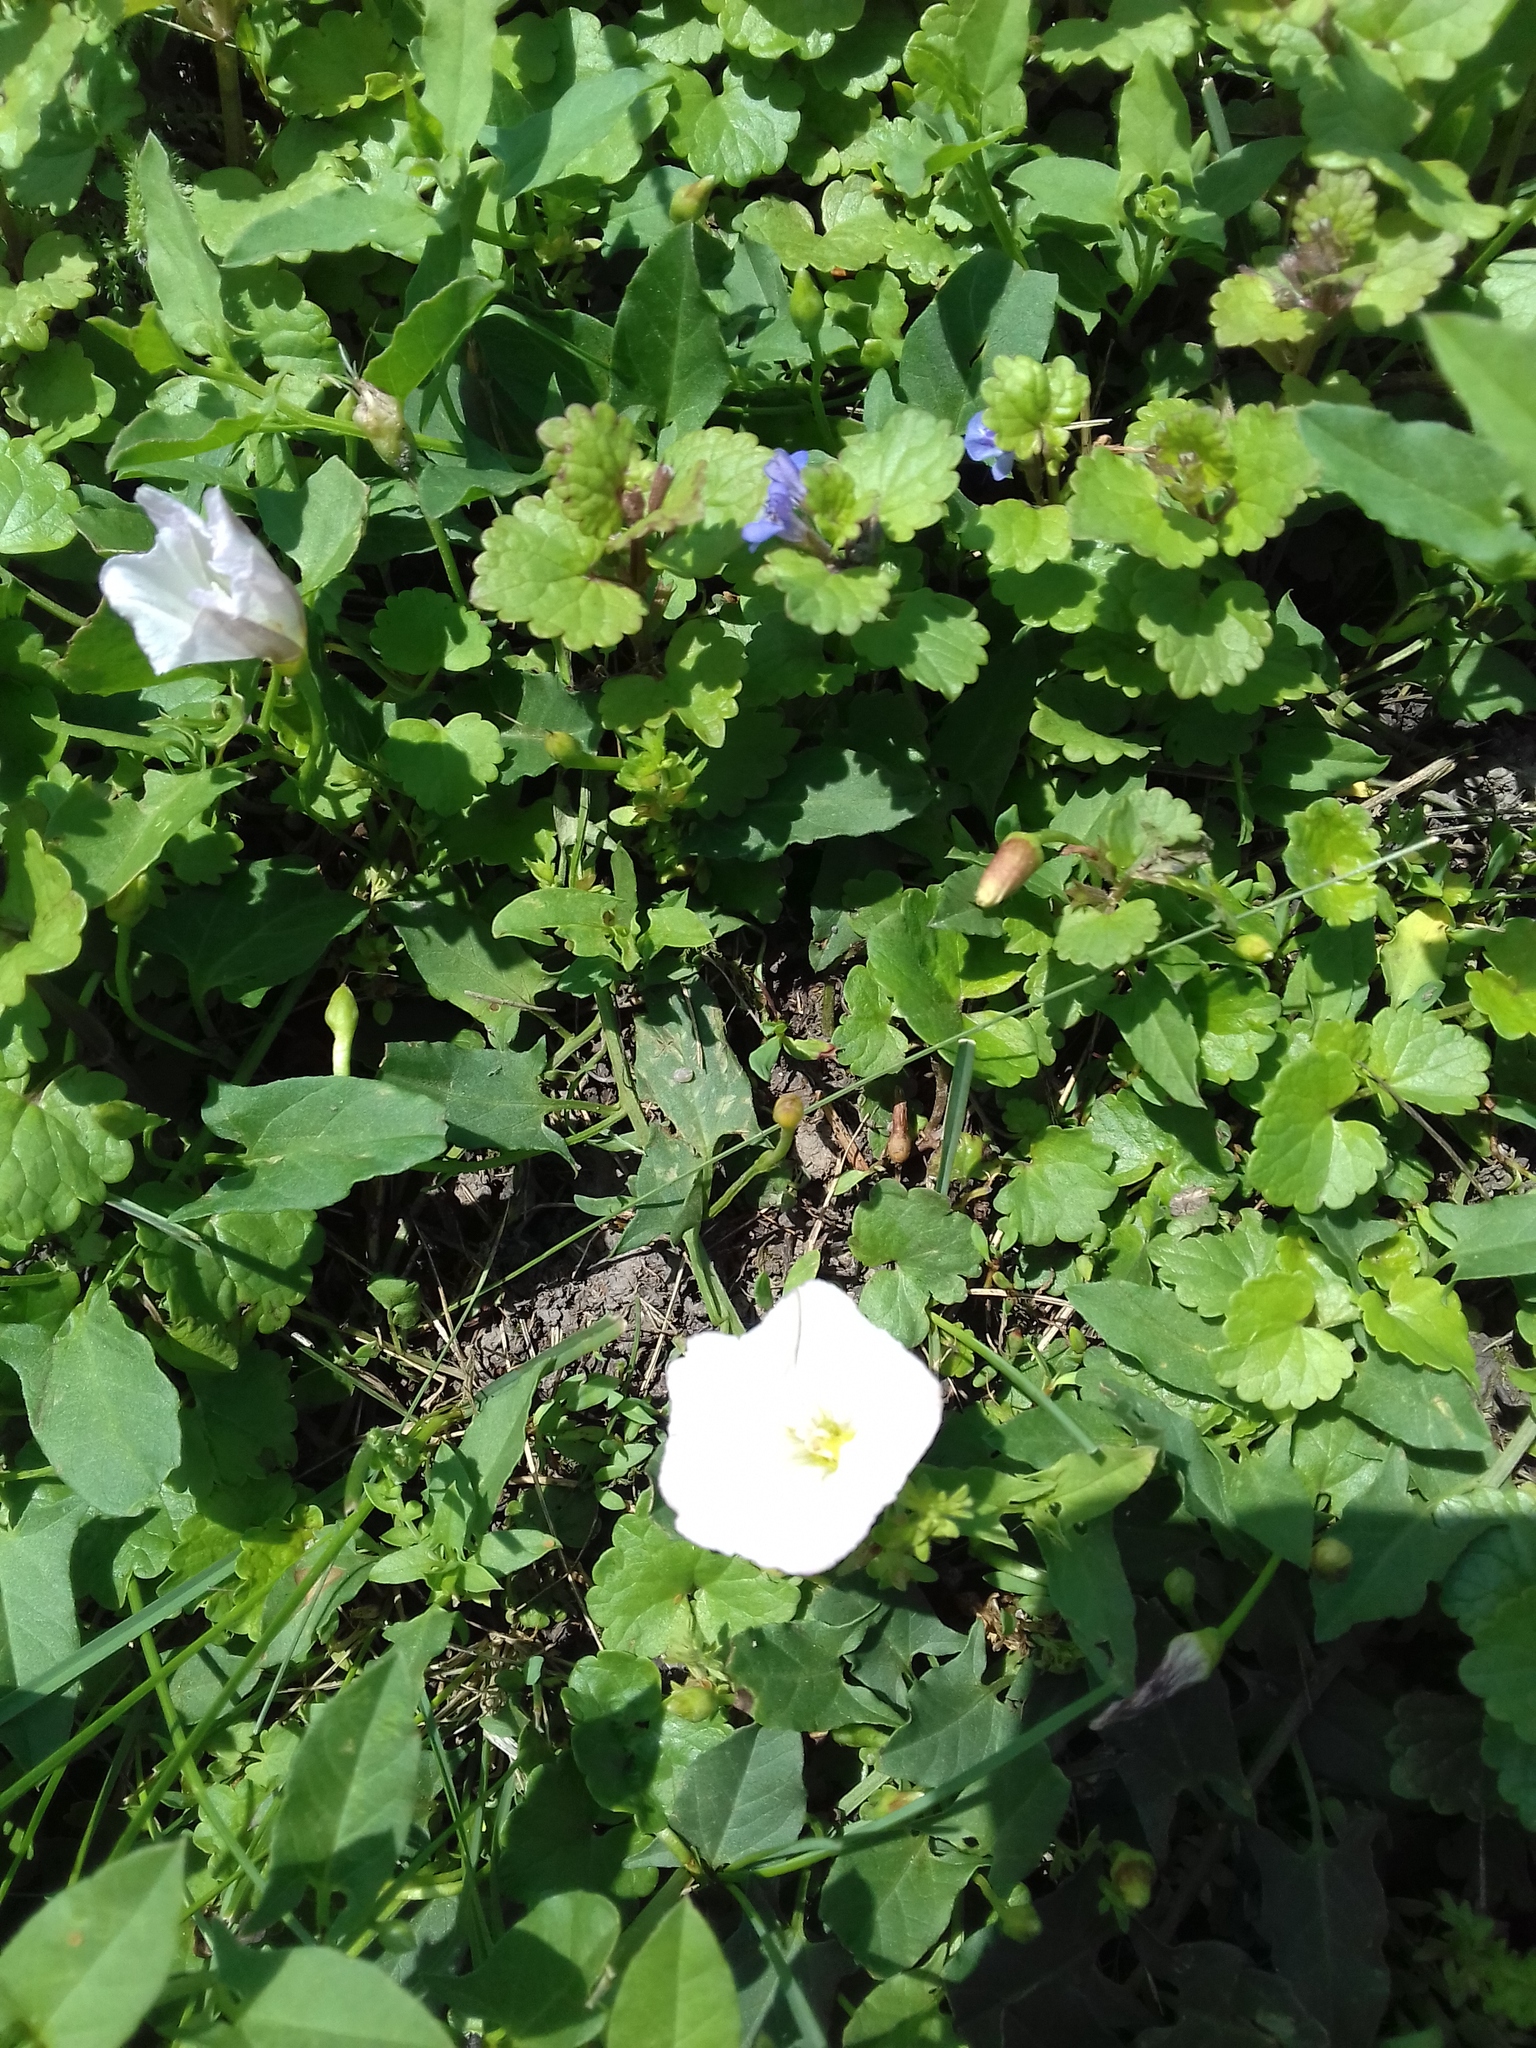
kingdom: Plantae
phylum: Tracheophyta
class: Magnoliopsida
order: Solanales
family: Convolvulaceae
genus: Convolvulus
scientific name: Convolvulus arvensis
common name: Field bindweed
